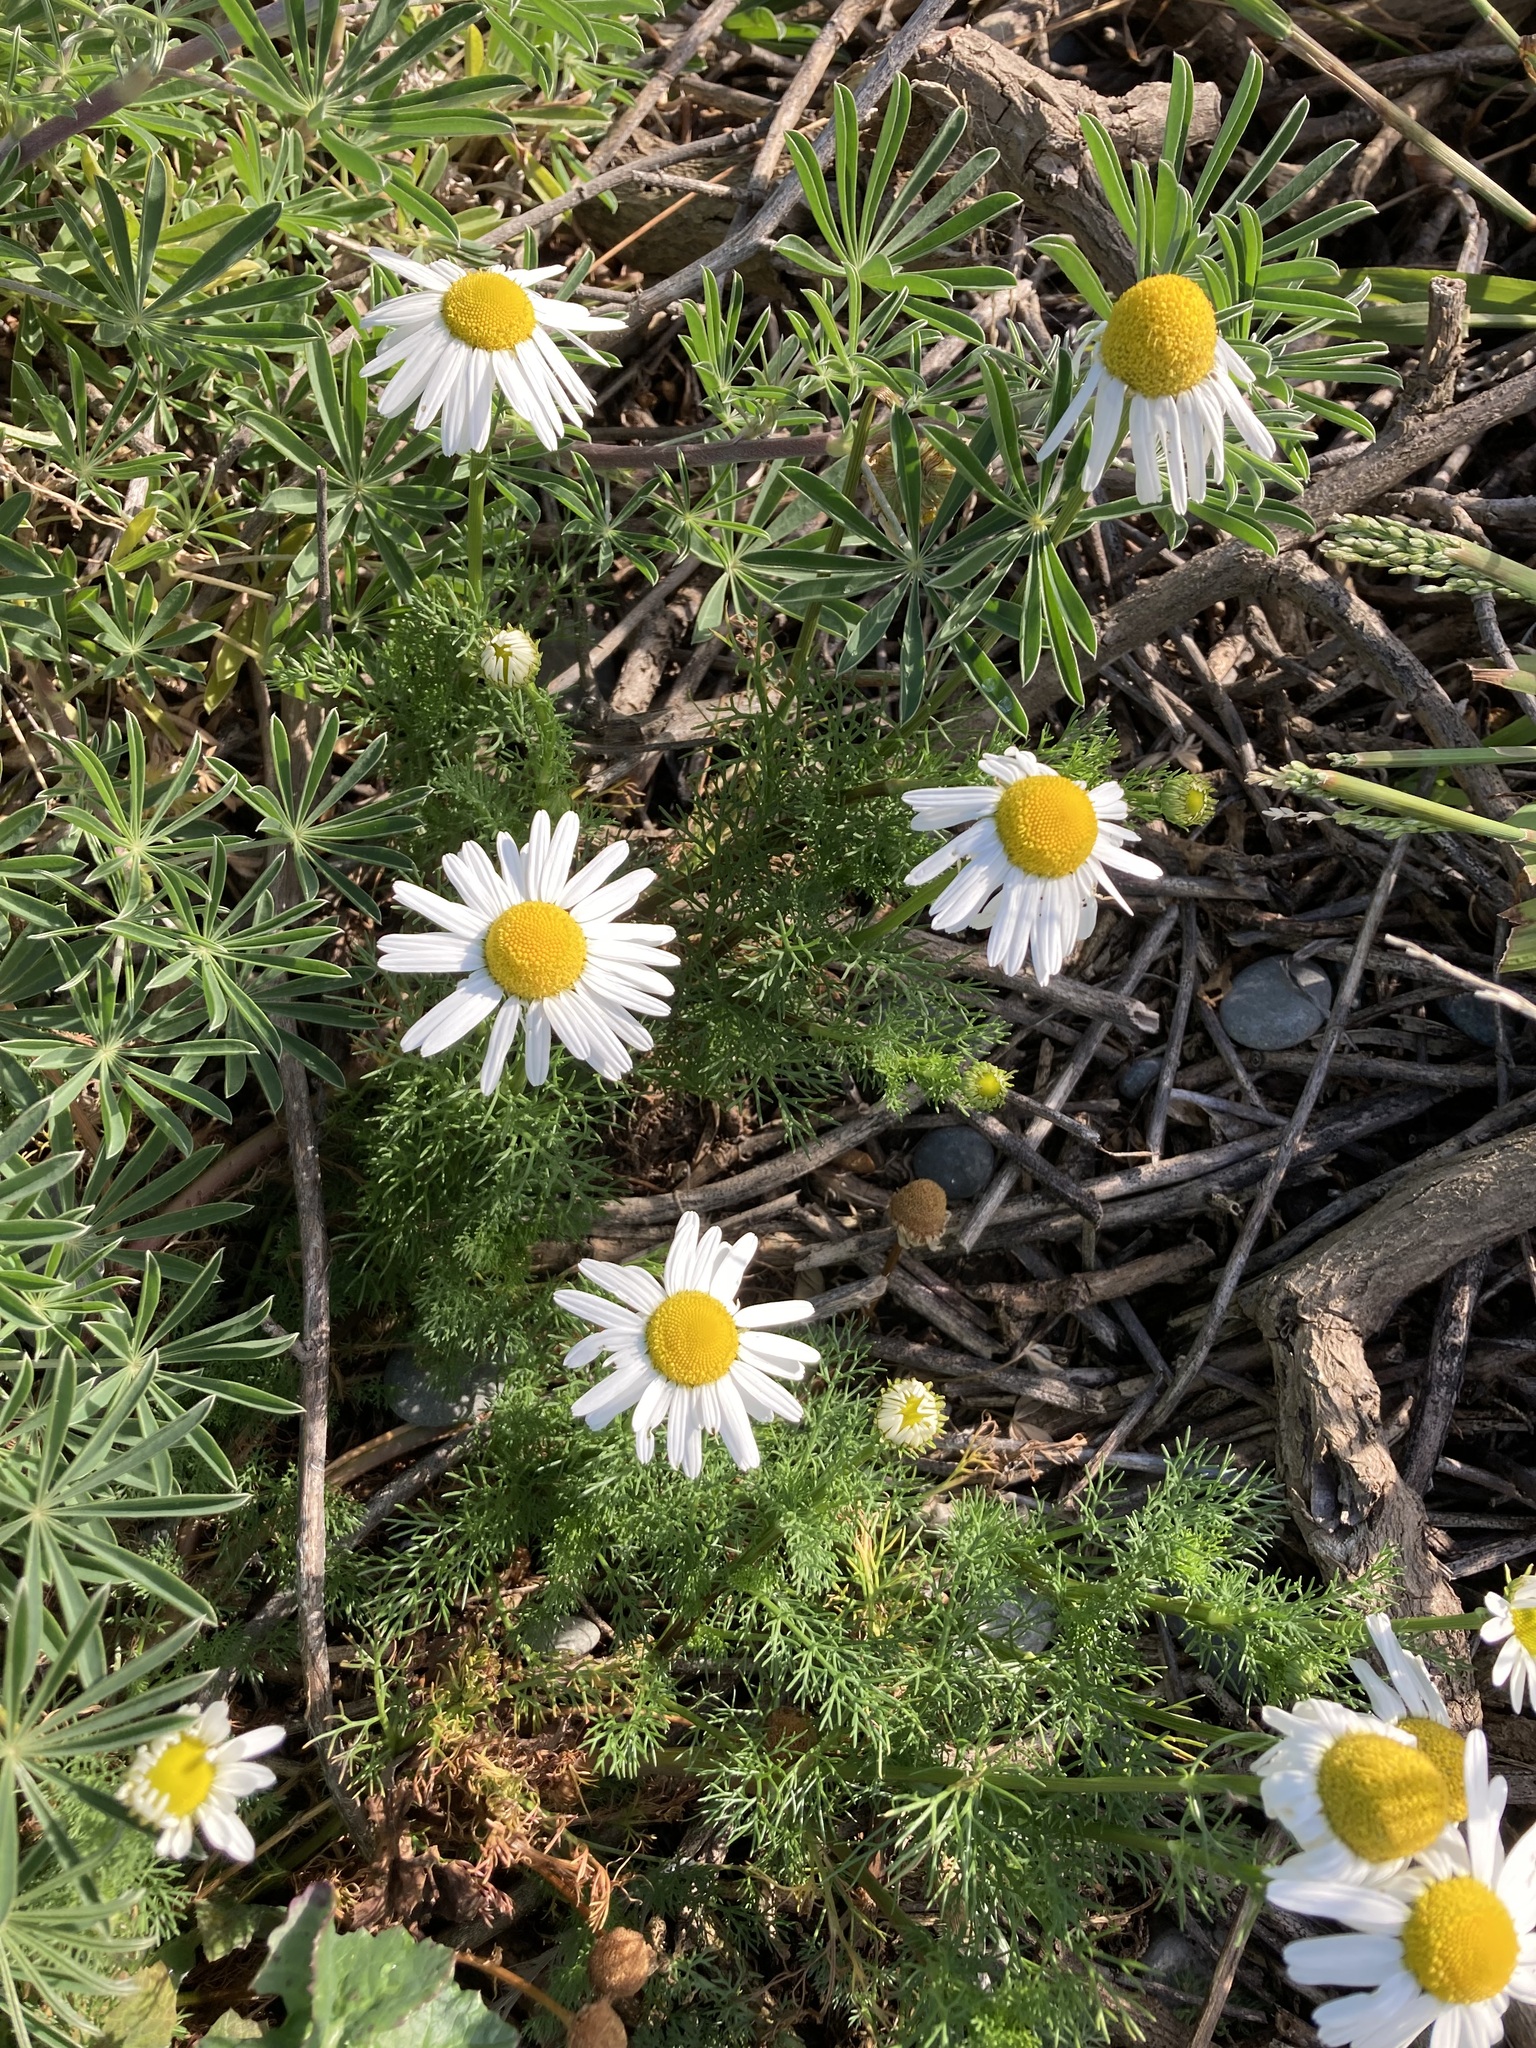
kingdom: Plantae
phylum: Tracheophyta
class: Magnoliopsida
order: Asterales
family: Asteraceae
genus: Tripleurospermum
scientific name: Tripleurospermum inodorum
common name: Scentless mayweed
